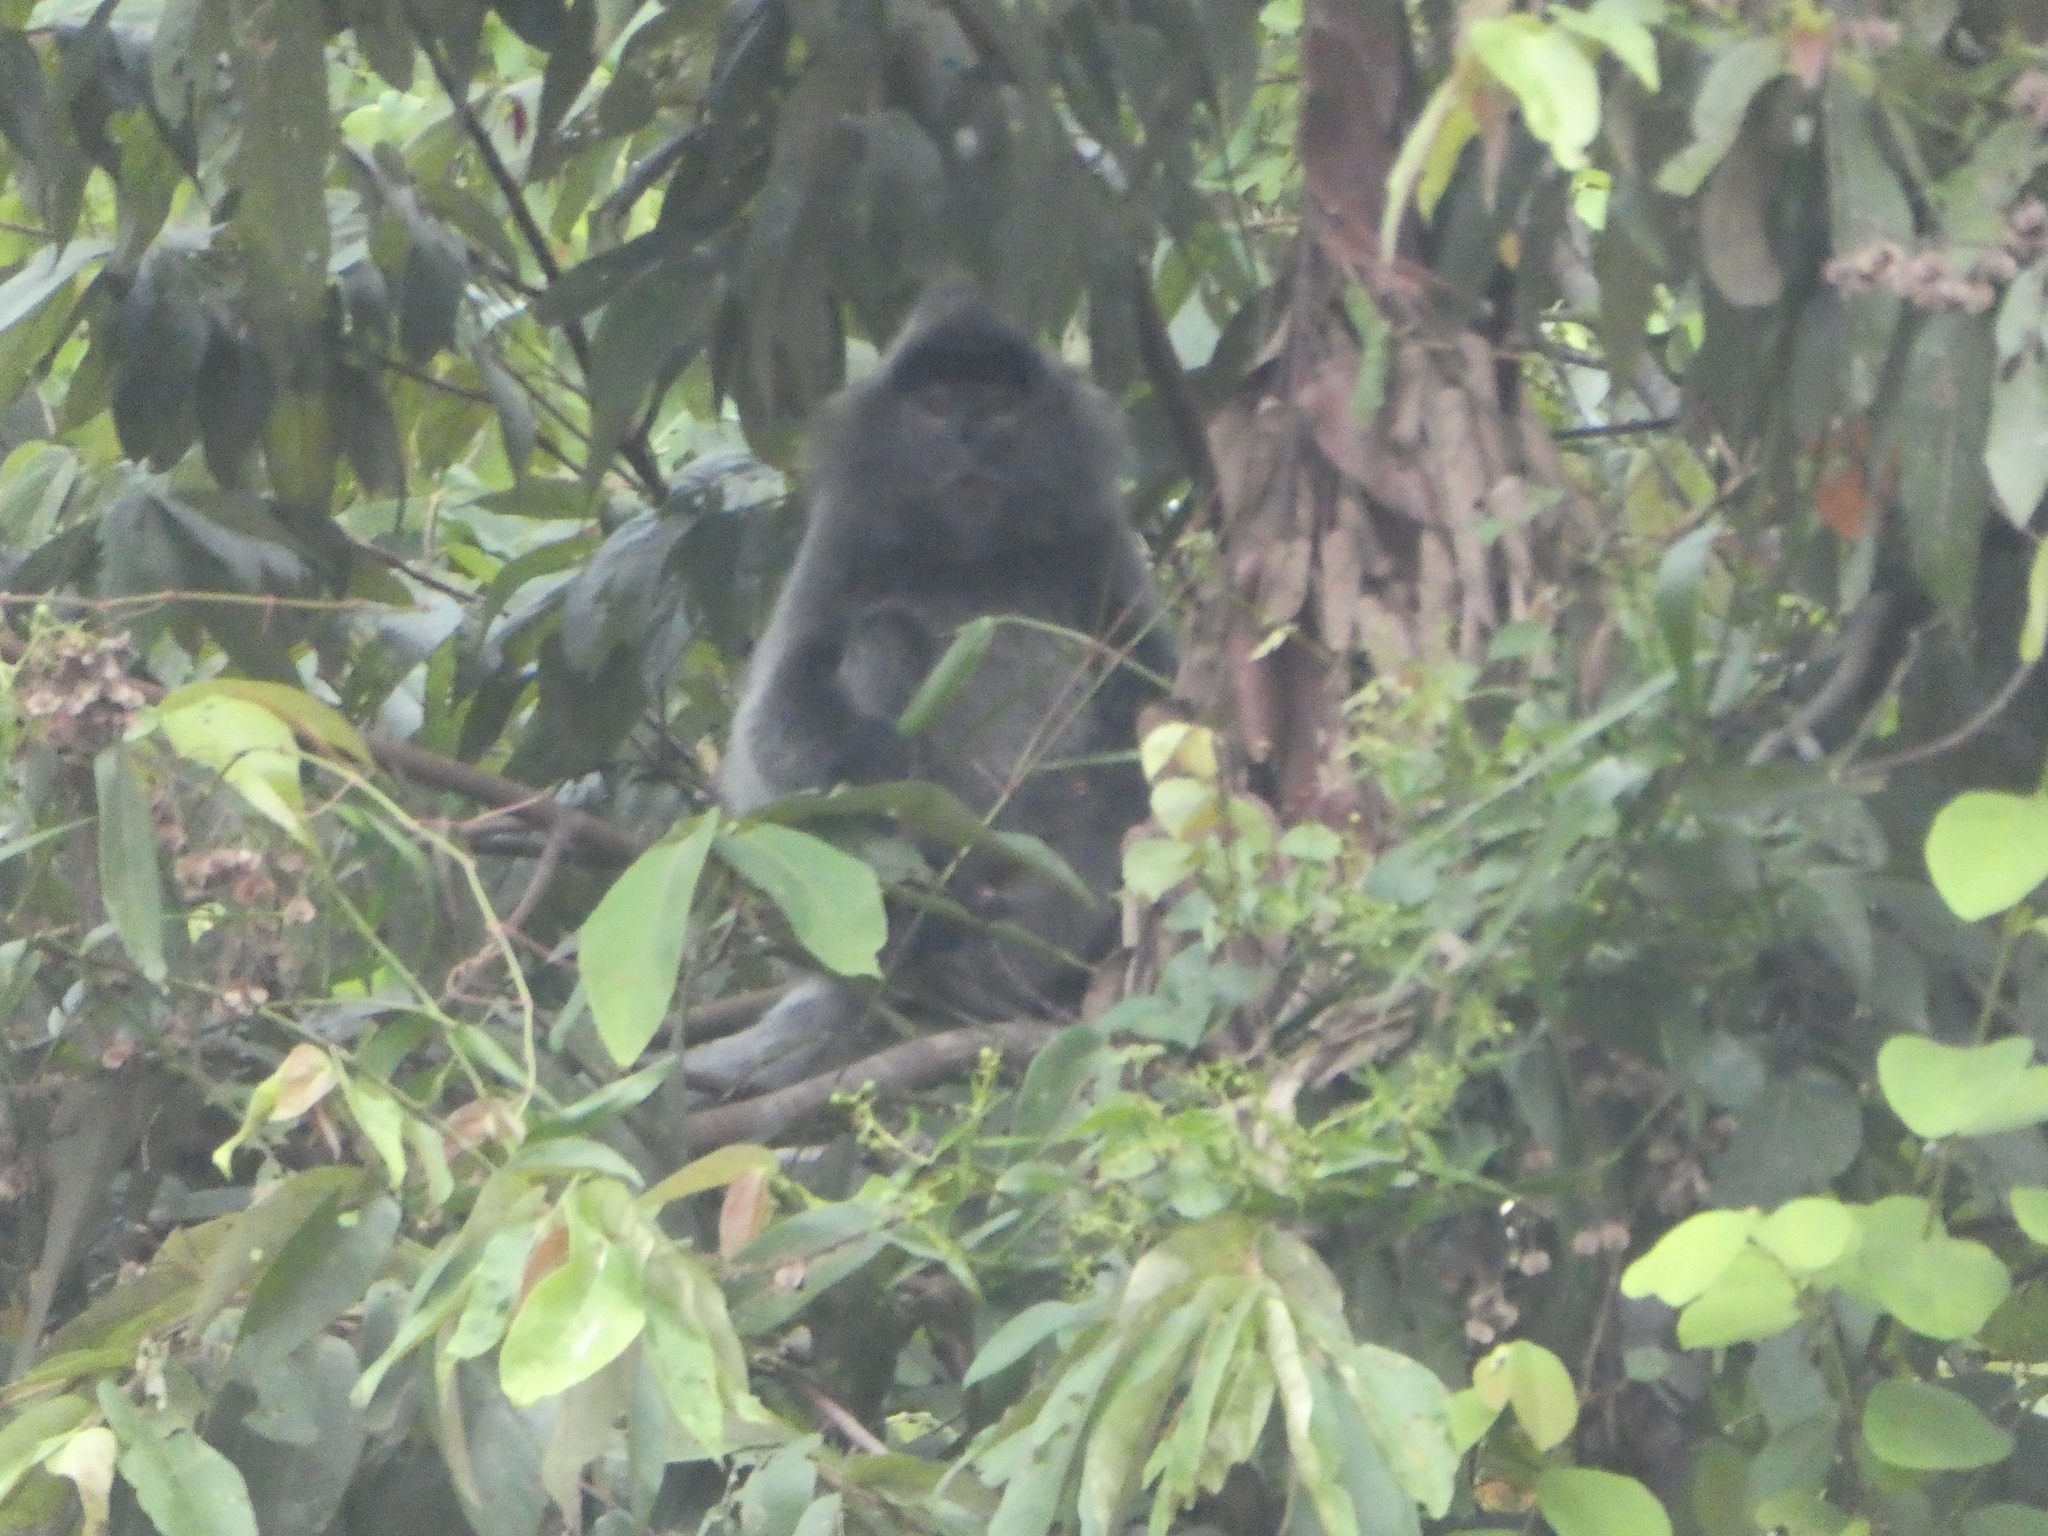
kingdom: Animalia
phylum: Chordata
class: Mammalia
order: Primates
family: Cercopithecidae
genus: Trachypithecus
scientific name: Trachypithecus cristatus
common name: Silvery lutung
